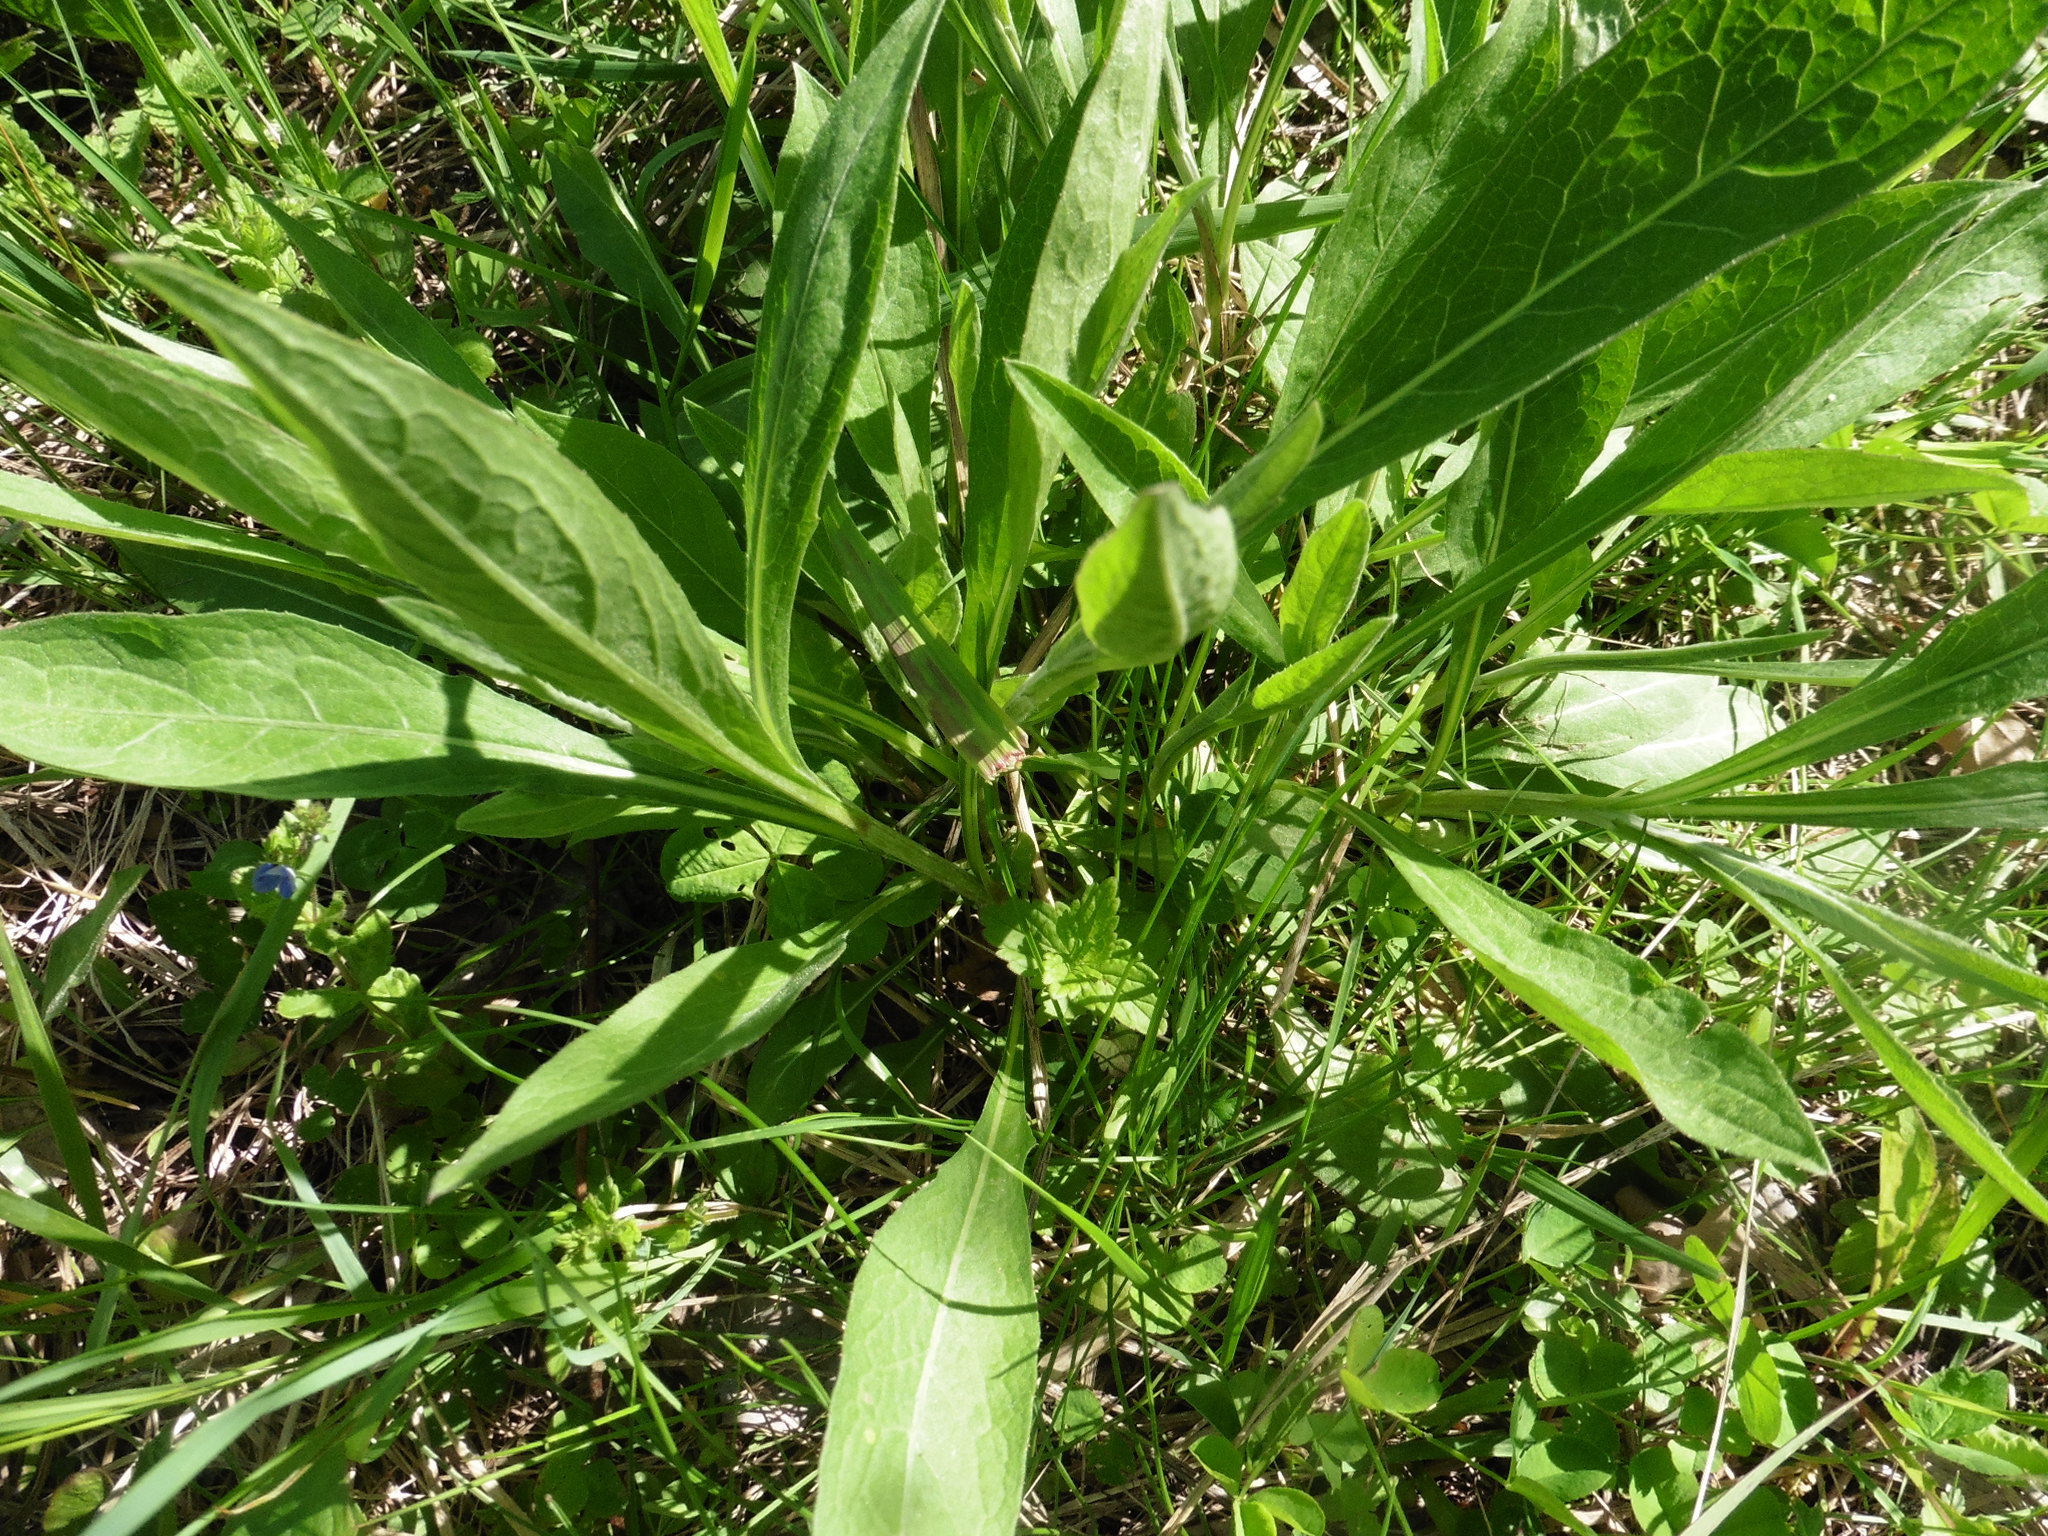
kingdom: Plantae
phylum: Tracheophyta
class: Magnoliopsida
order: Asterales
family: Asteraceae
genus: Centaurea
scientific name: Centaurea jacea
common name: Brown knapweed
